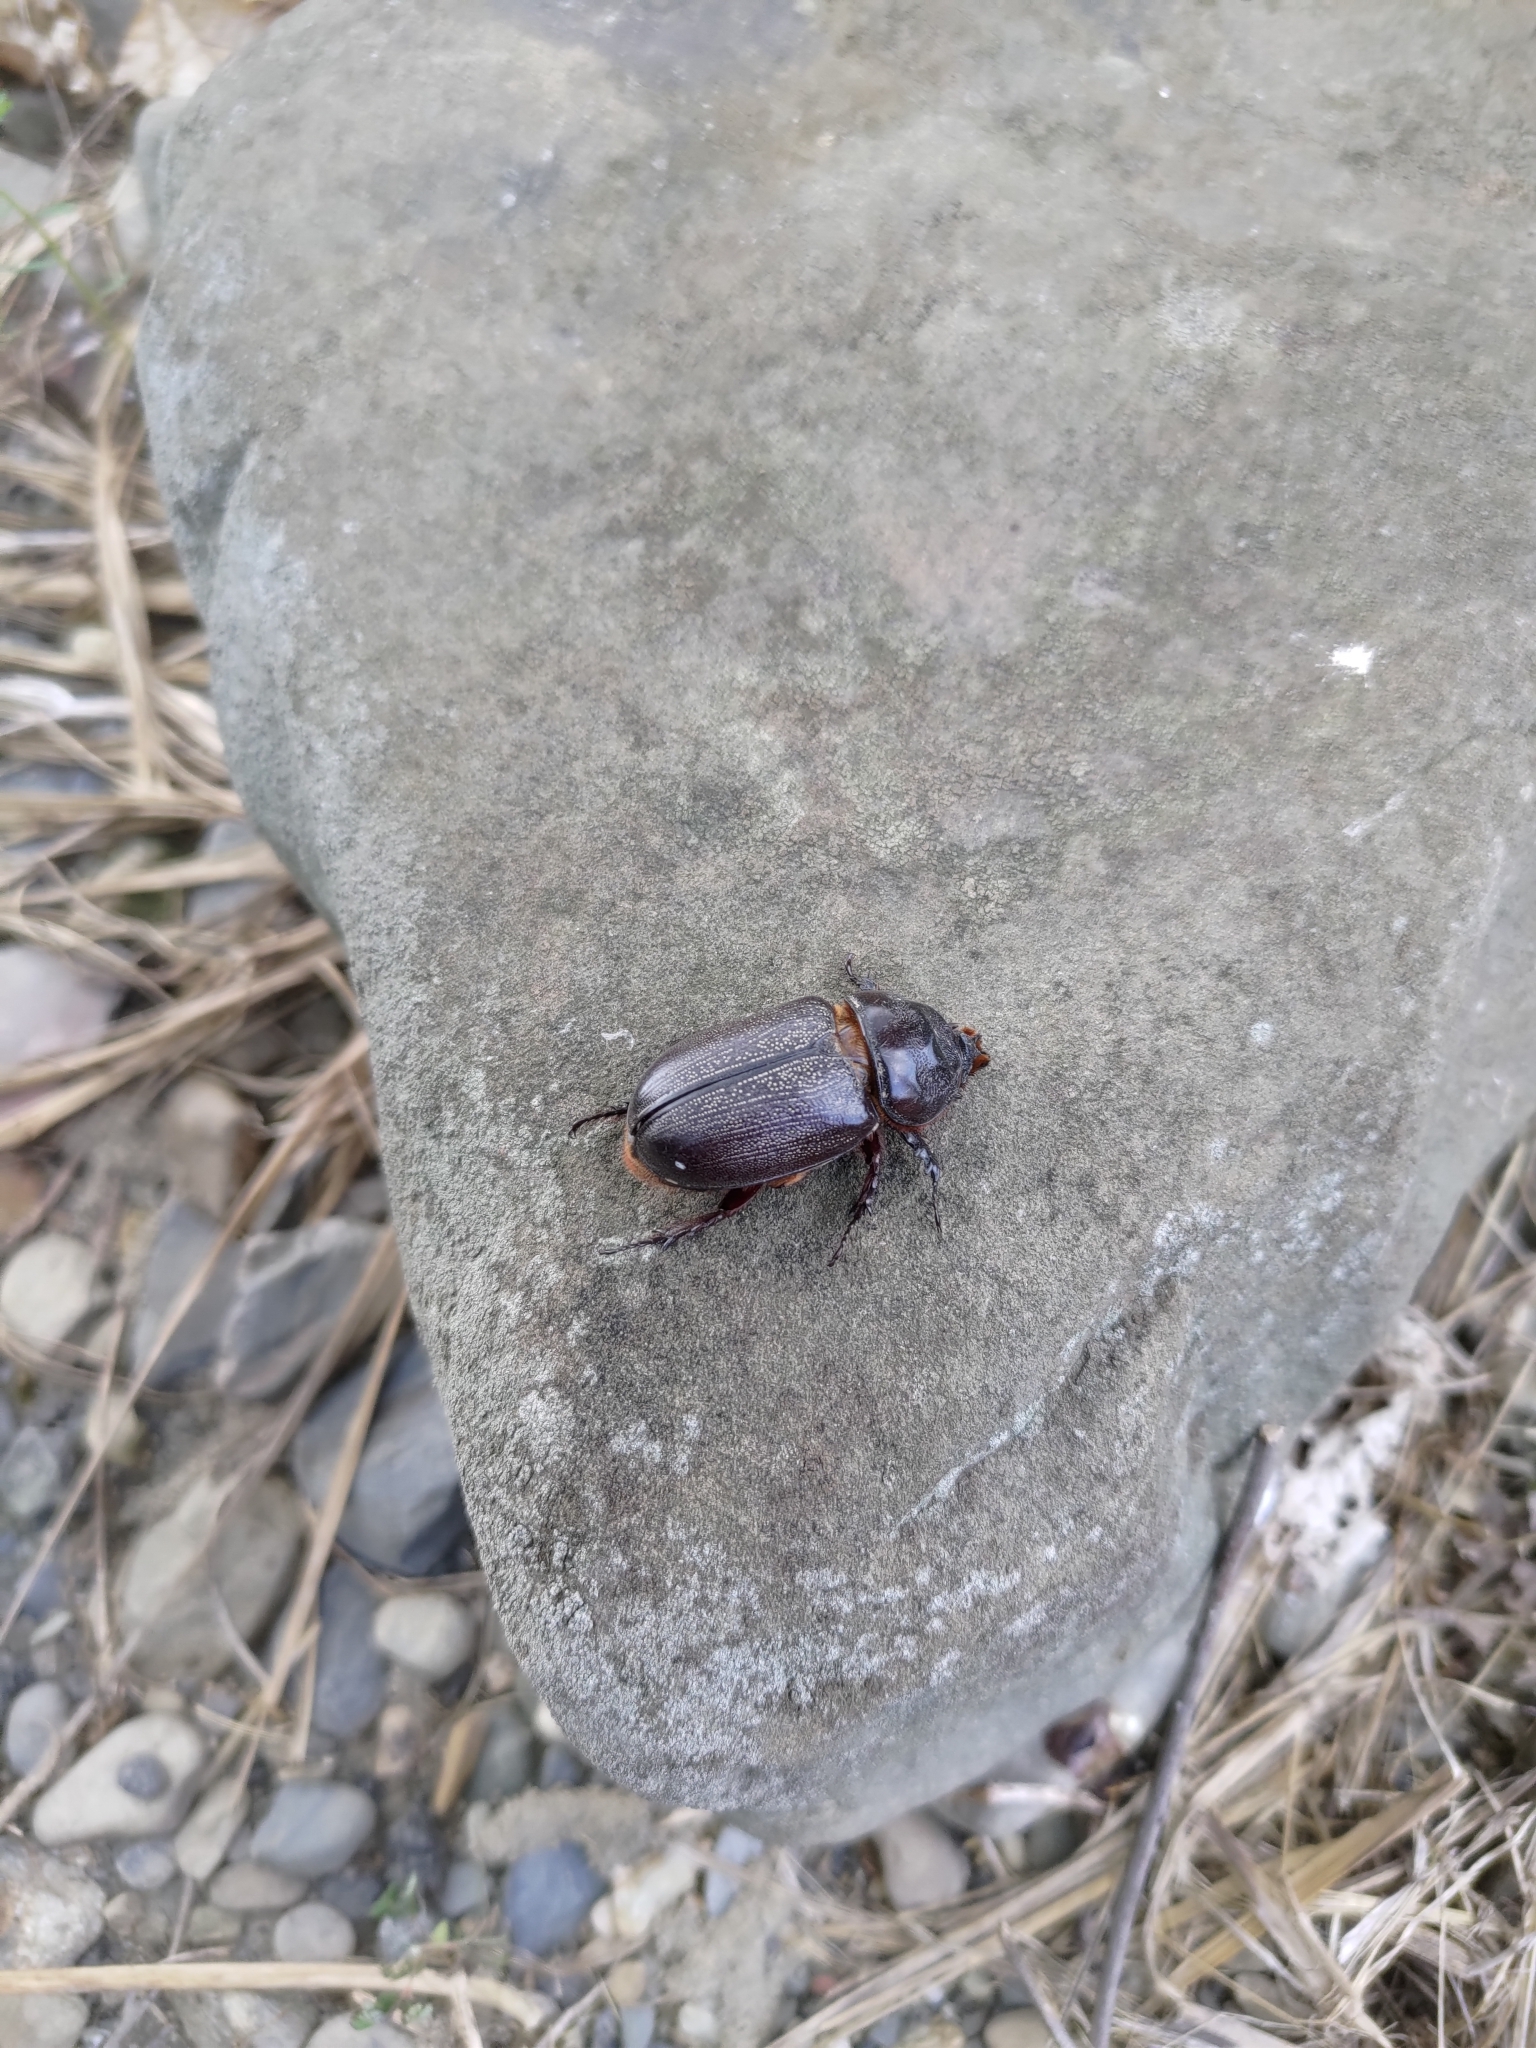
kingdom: Animalia
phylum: Arthropoda
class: Insecta
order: Coleoptera
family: Scarabaeidae
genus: Oryctes
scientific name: Oryctes rhinoceros
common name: Coconut rhinoceros beetle
